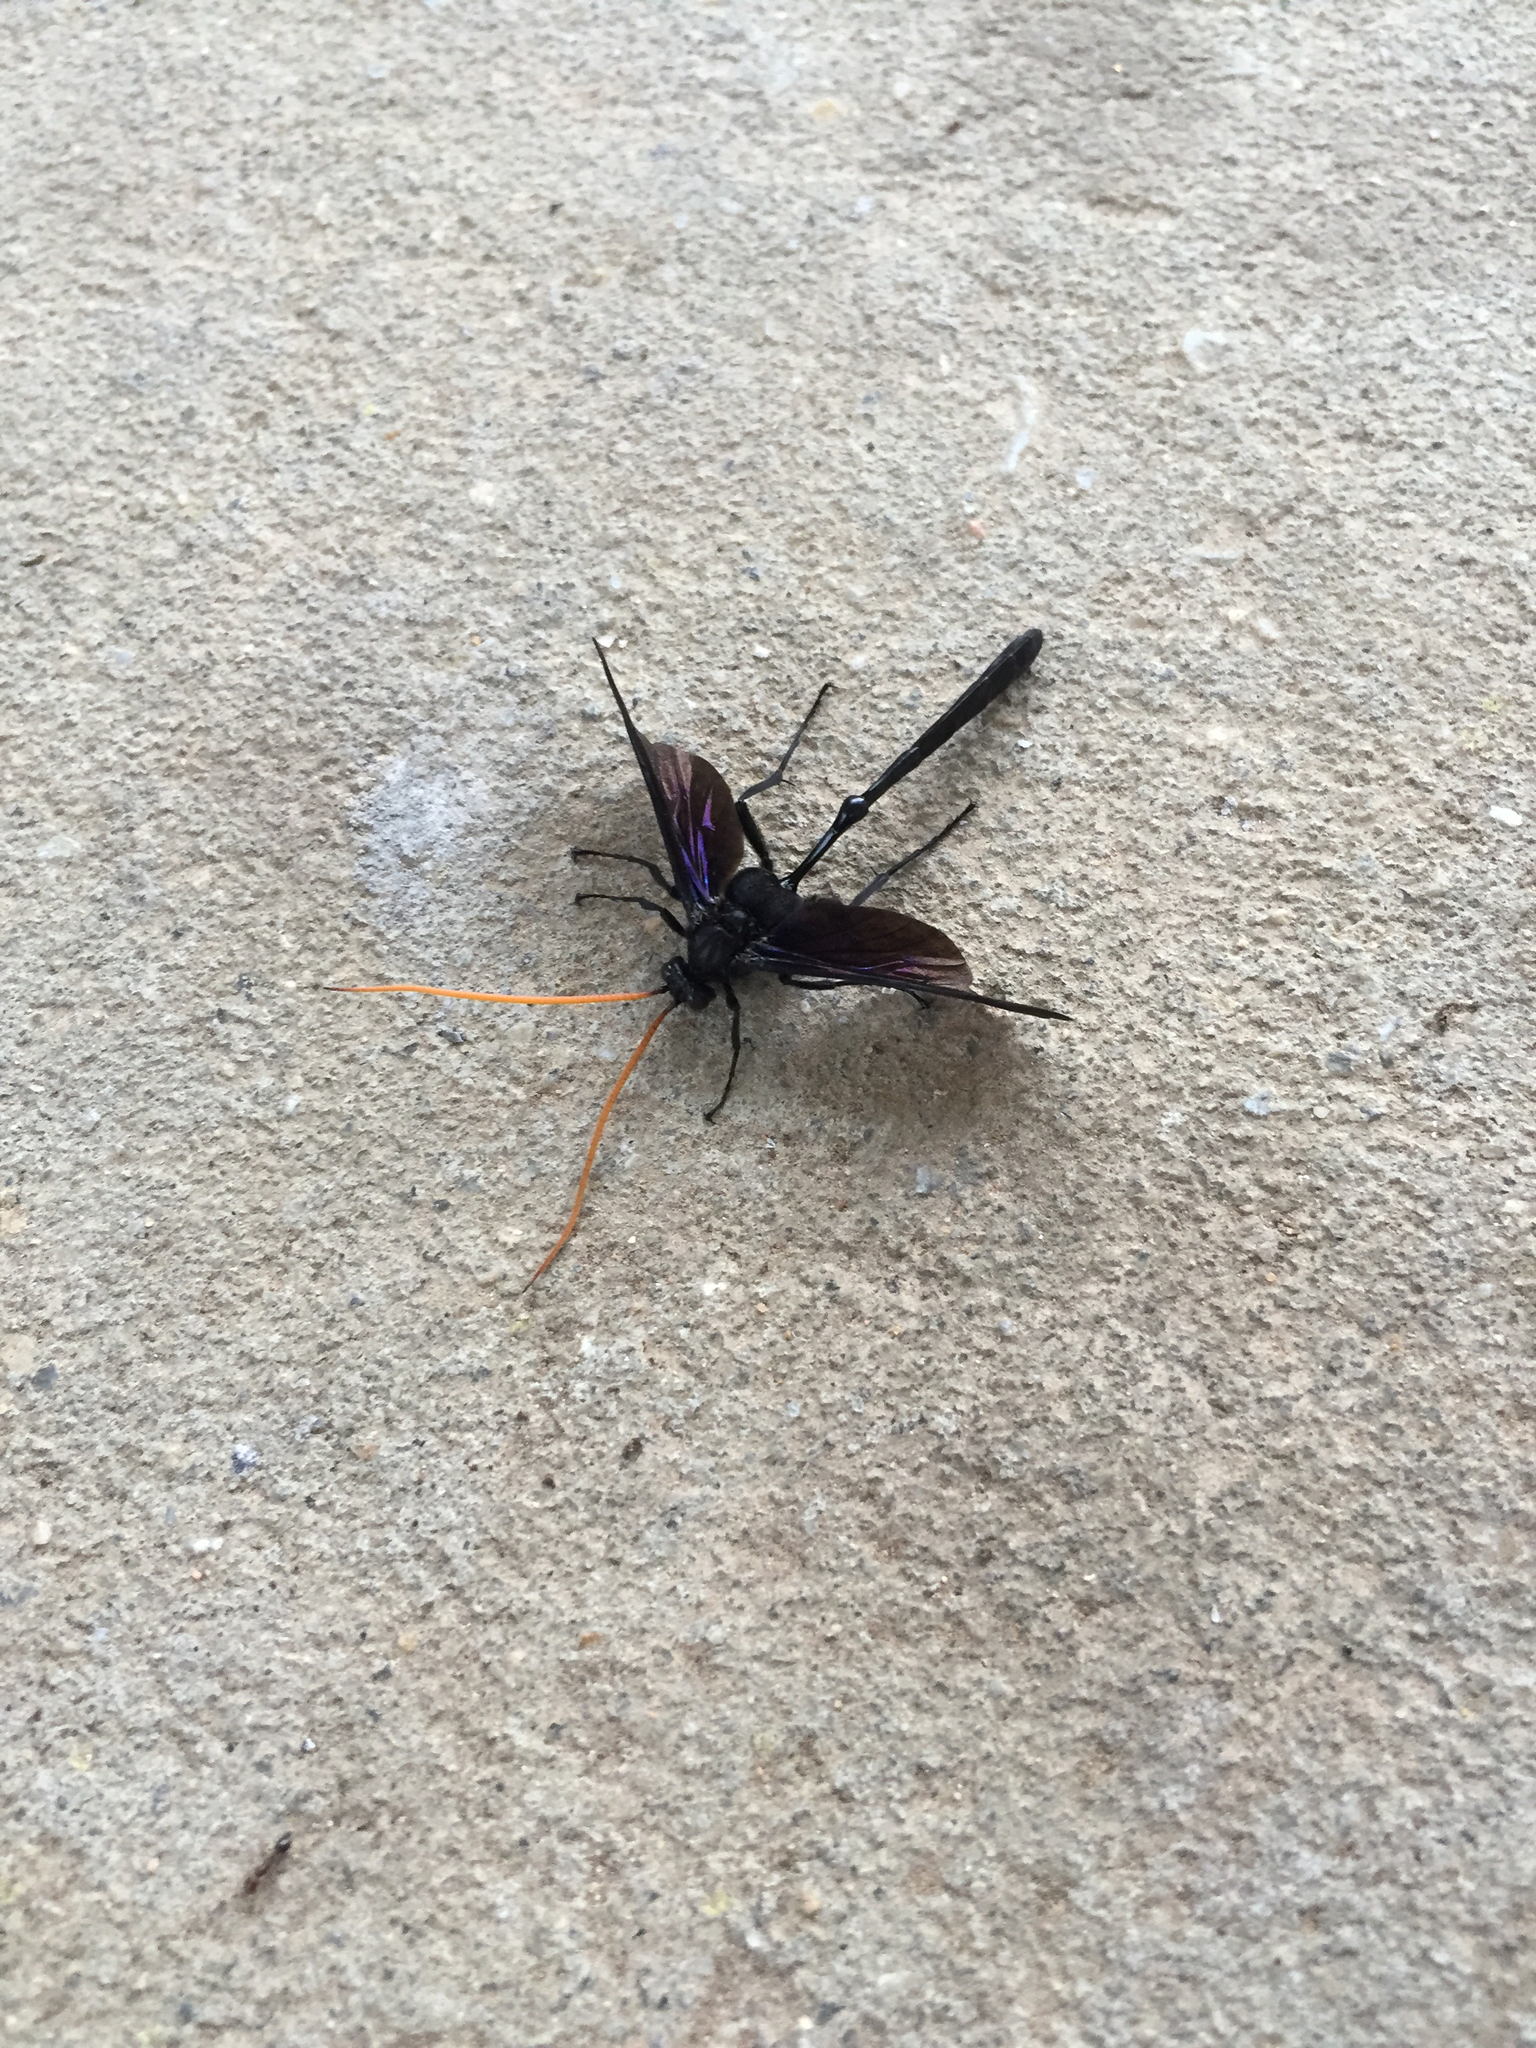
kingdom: Animalia
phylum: Arthropoda
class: Insecta
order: Hymenoptera
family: Ichneumonidae
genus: Thyreodon
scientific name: Thyreodon atricolor
